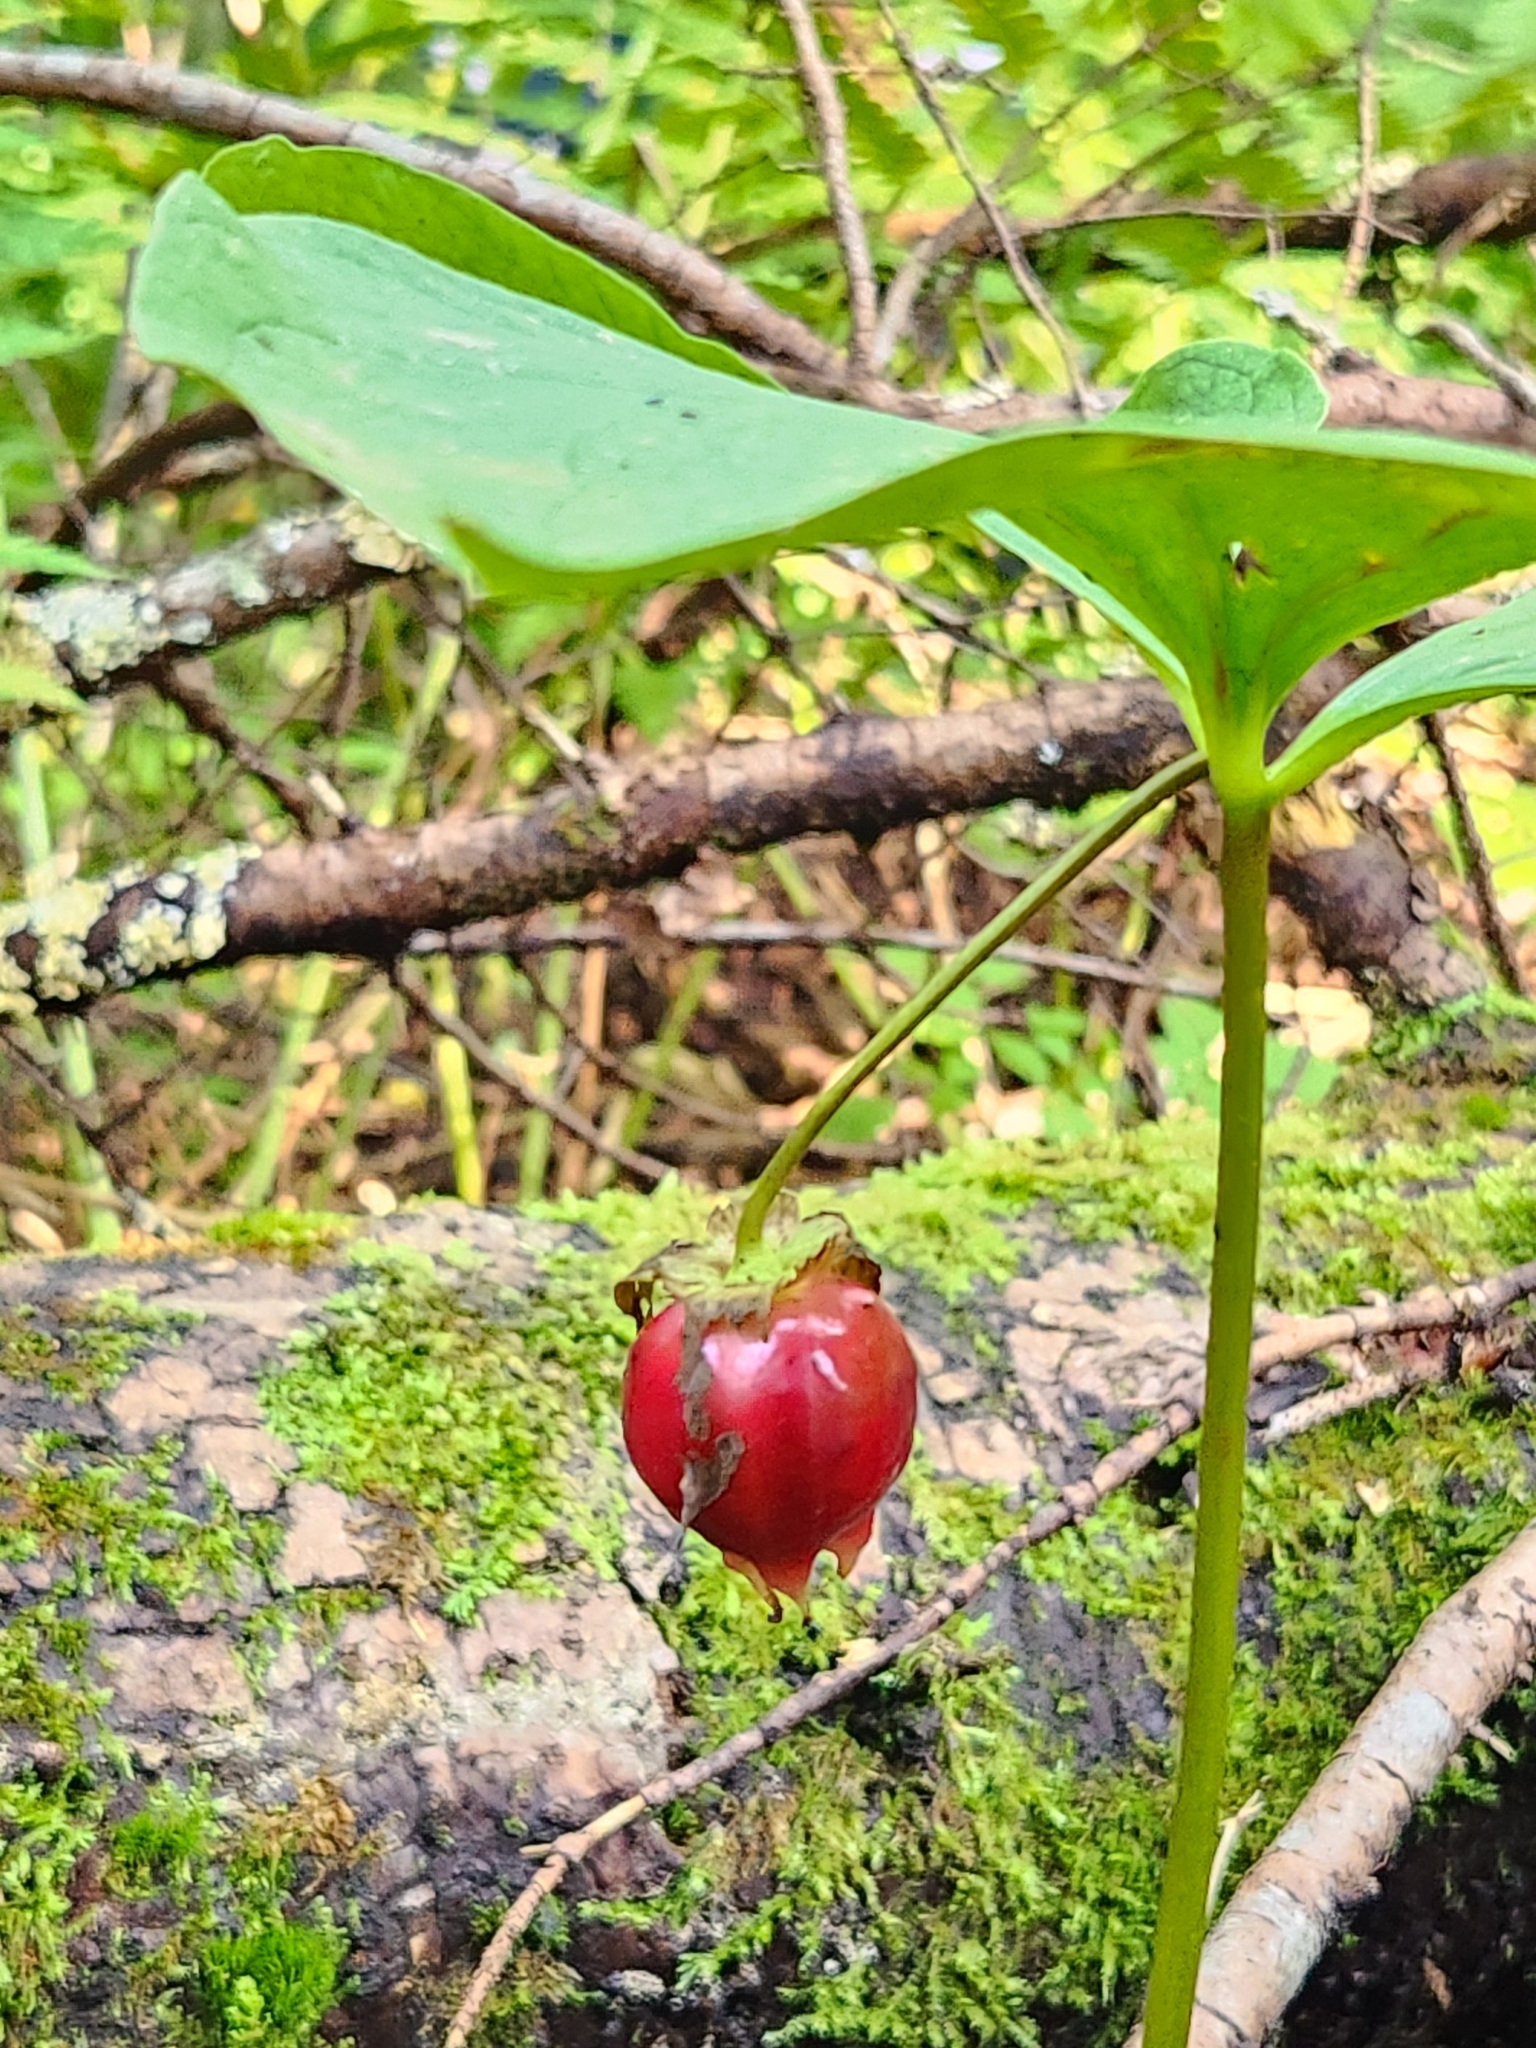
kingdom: Plantae
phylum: Tracheophyta
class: Liliopsida
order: Liliales
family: Melanthiaceae
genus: Trillium
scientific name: Trillium cernuum
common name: Nodding trillium
